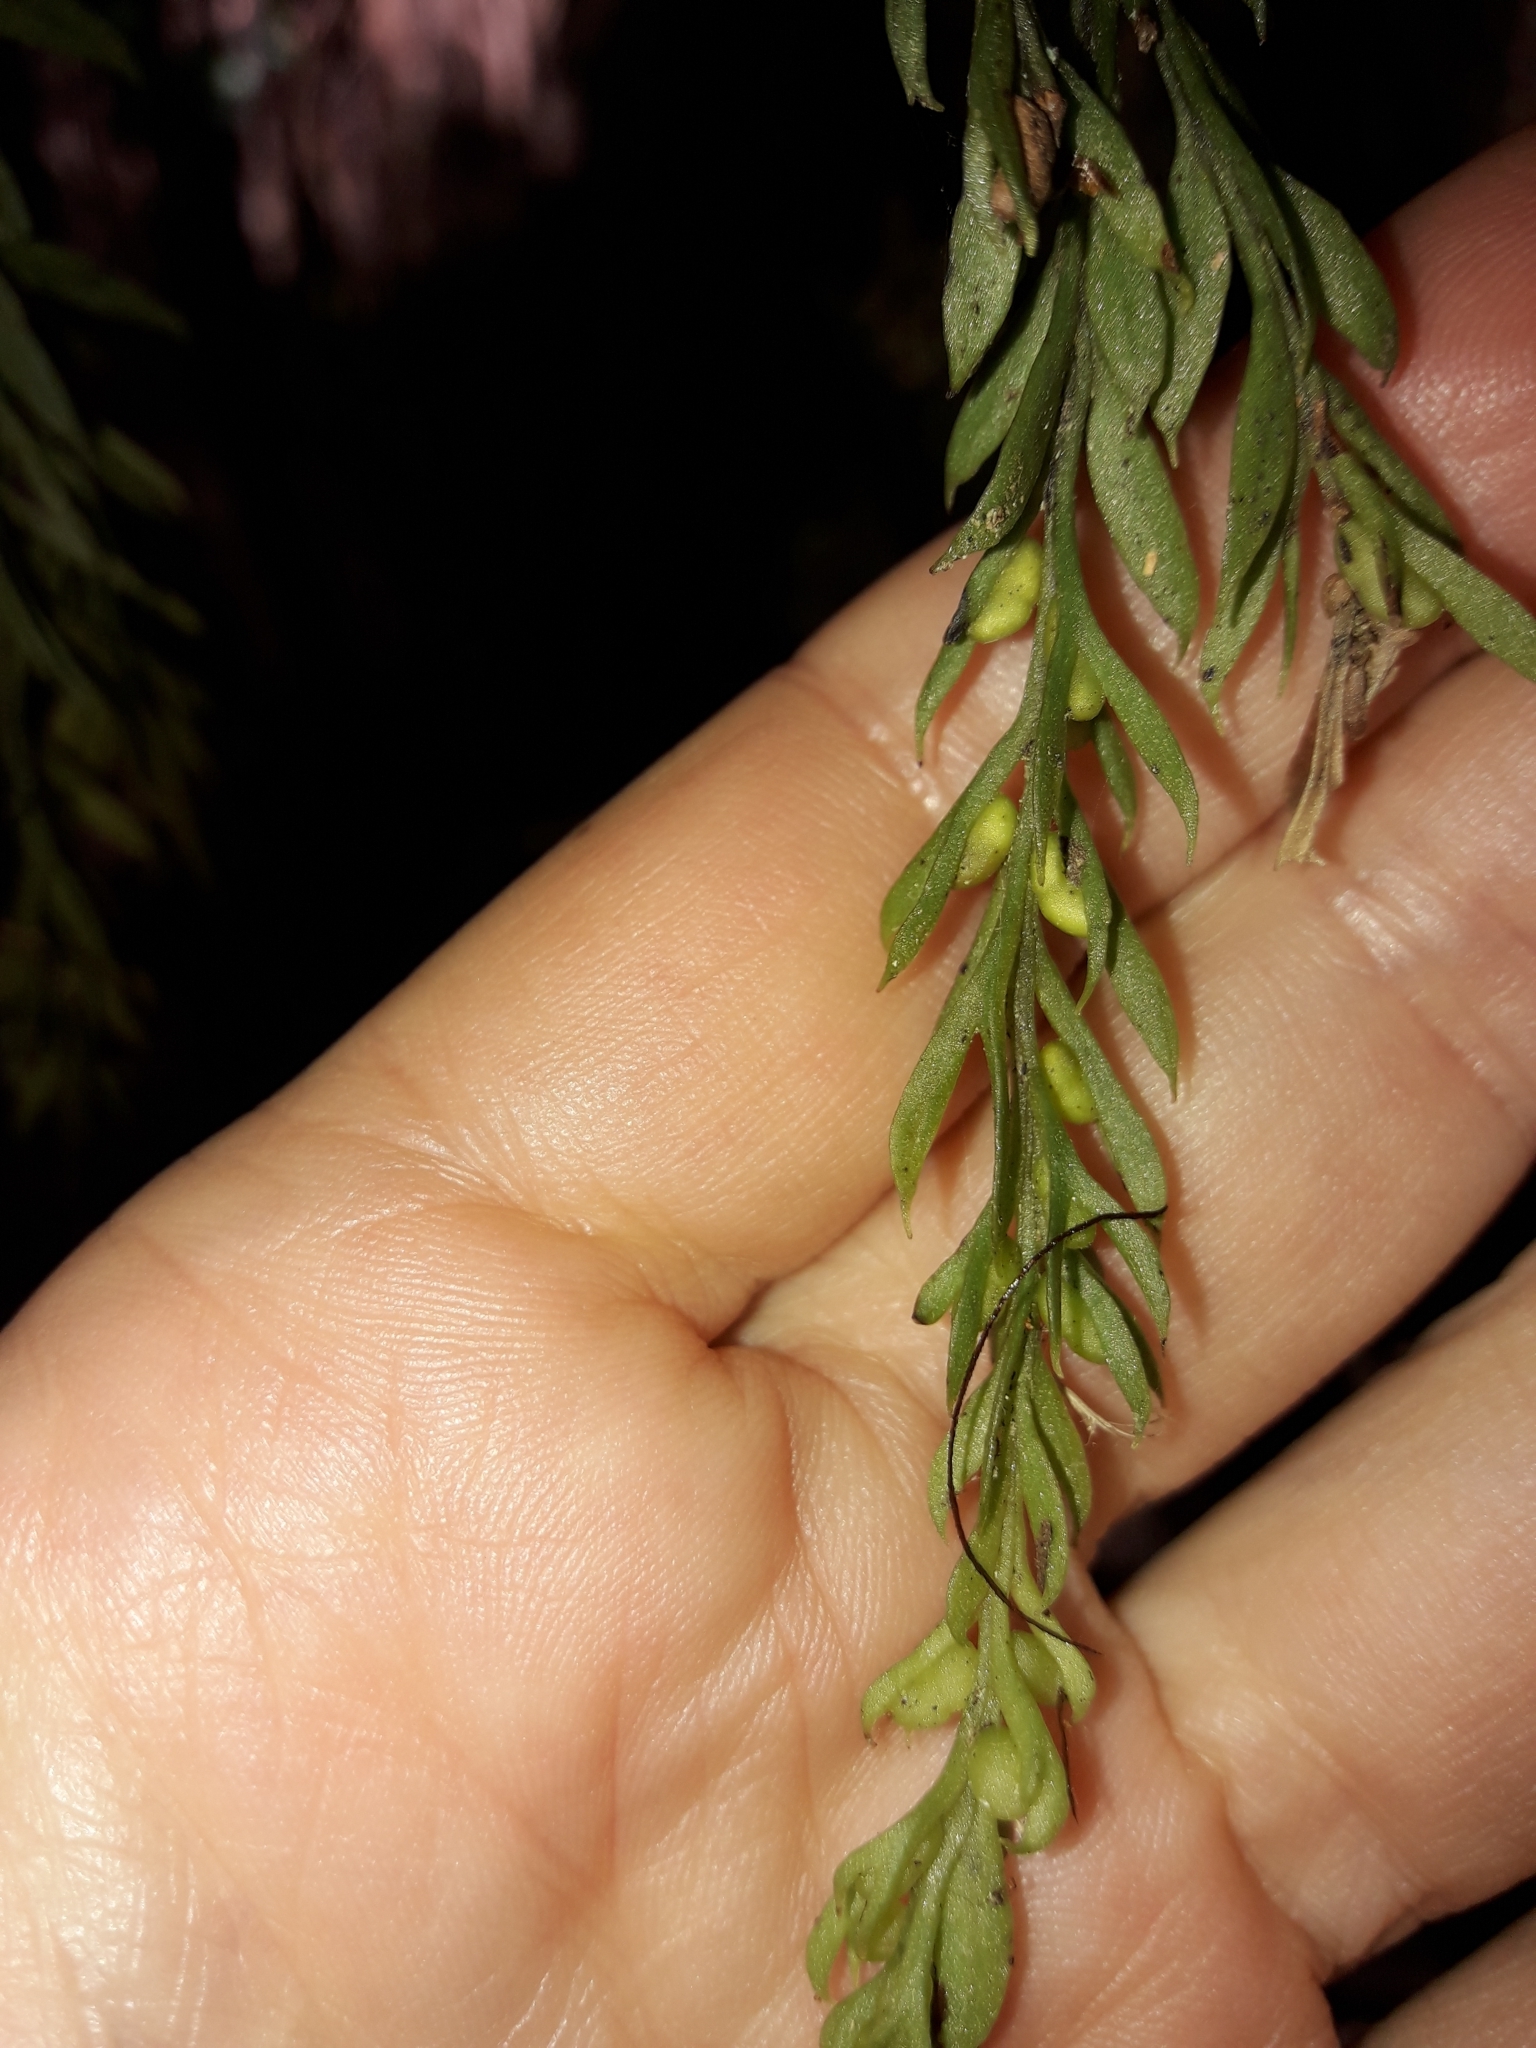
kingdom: Plantae
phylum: Tracheophyta
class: Polypodiopsida
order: Psilotales
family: Psilotaceae
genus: Tmesipteris
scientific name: Tmesipteris elongata
